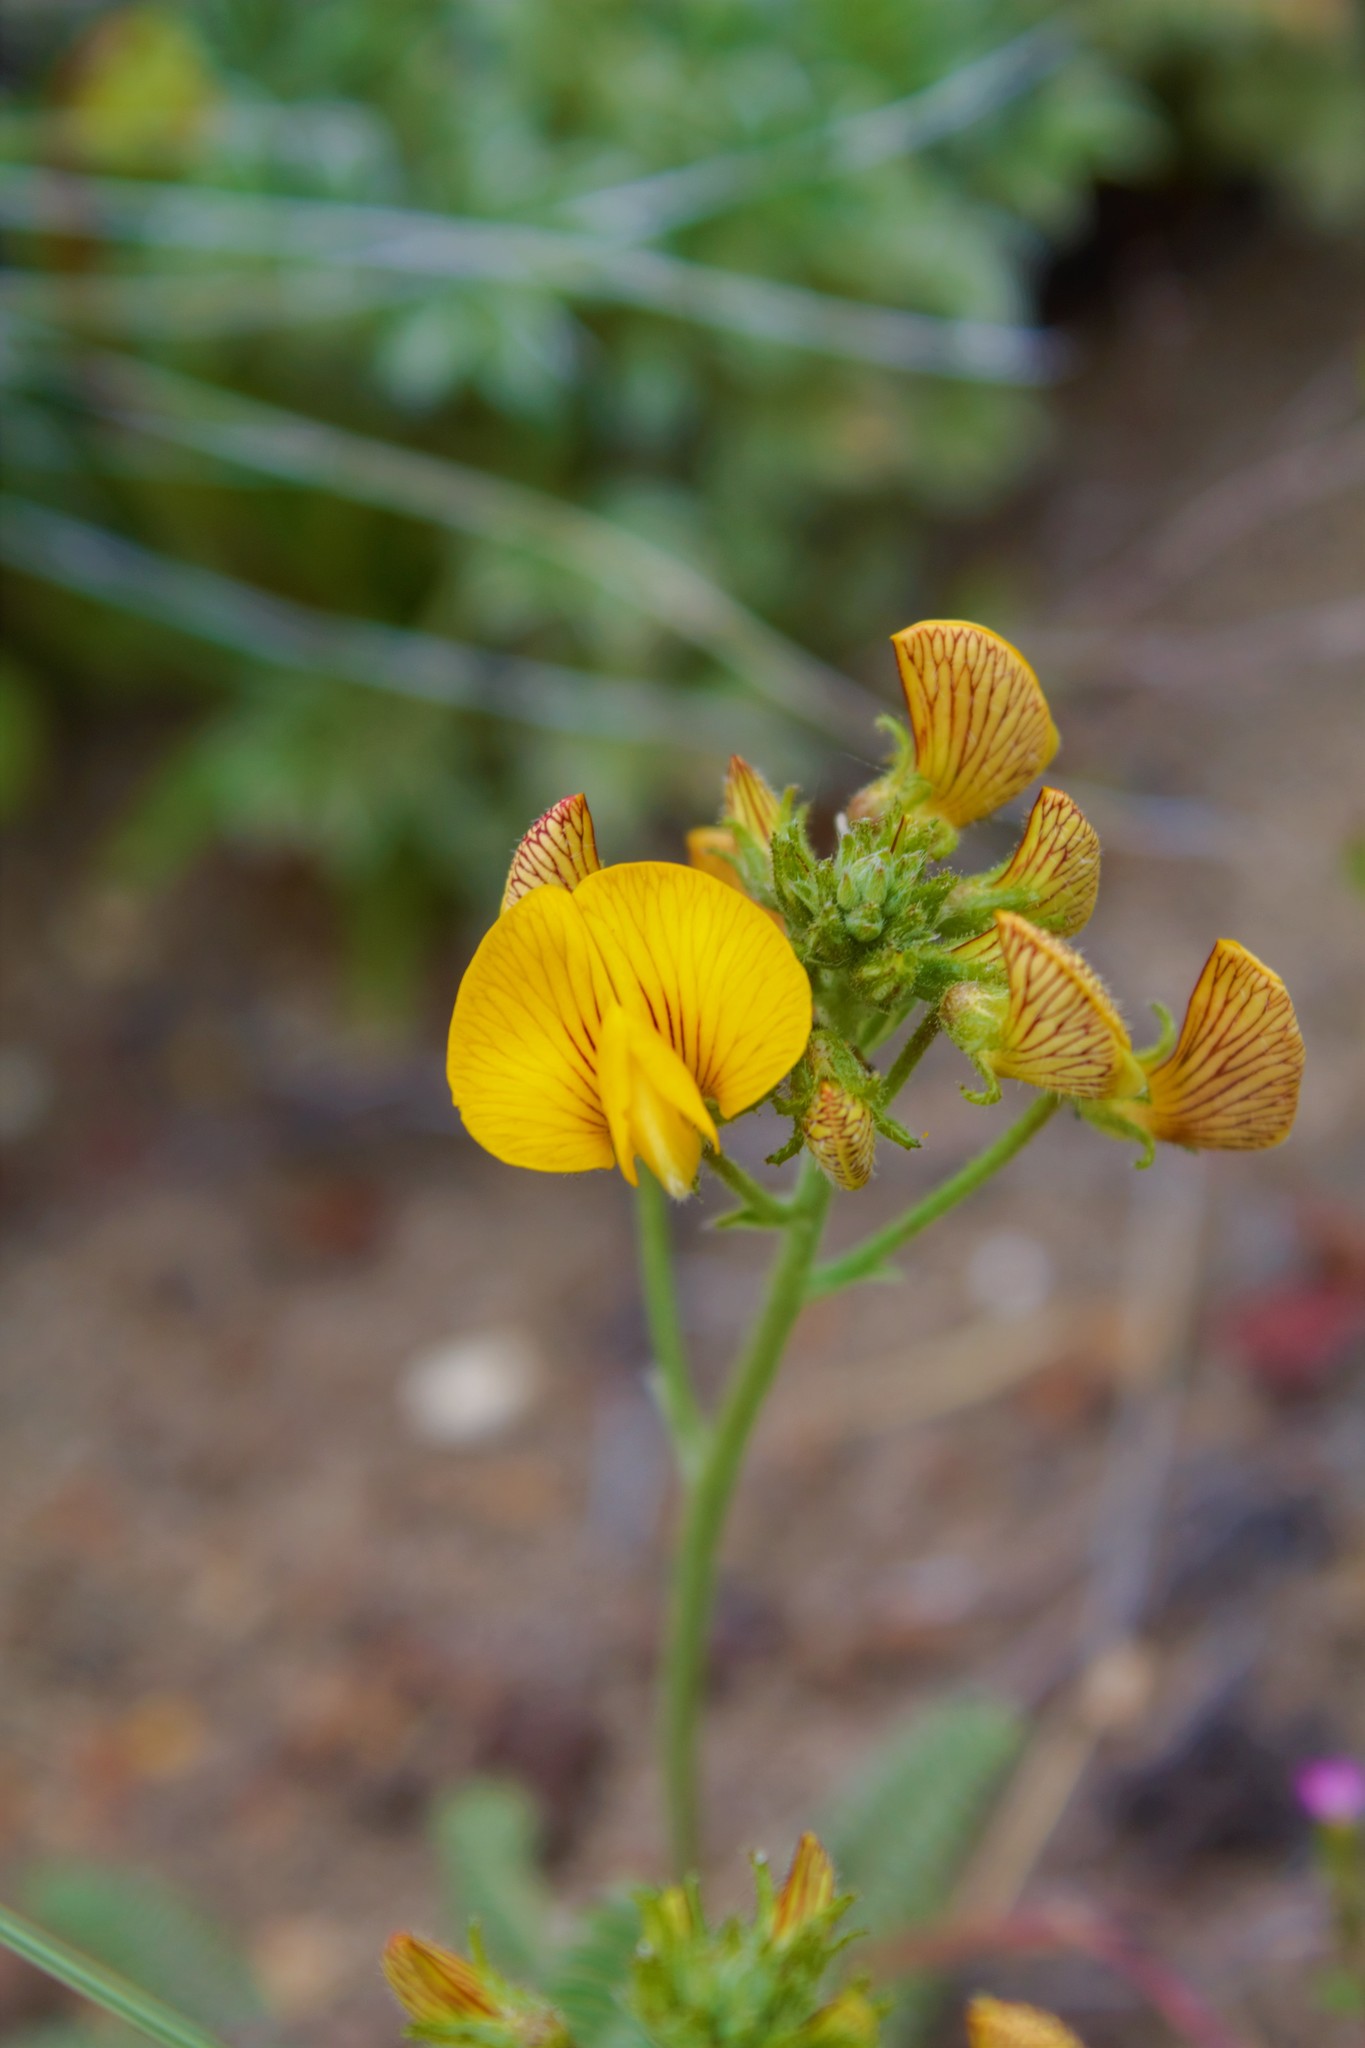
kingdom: Plantae
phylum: Tracheophyta
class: Magnoliopsida
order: Fabales
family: Fabaceae
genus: Adesmia
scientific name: Adesmia corymbosa
